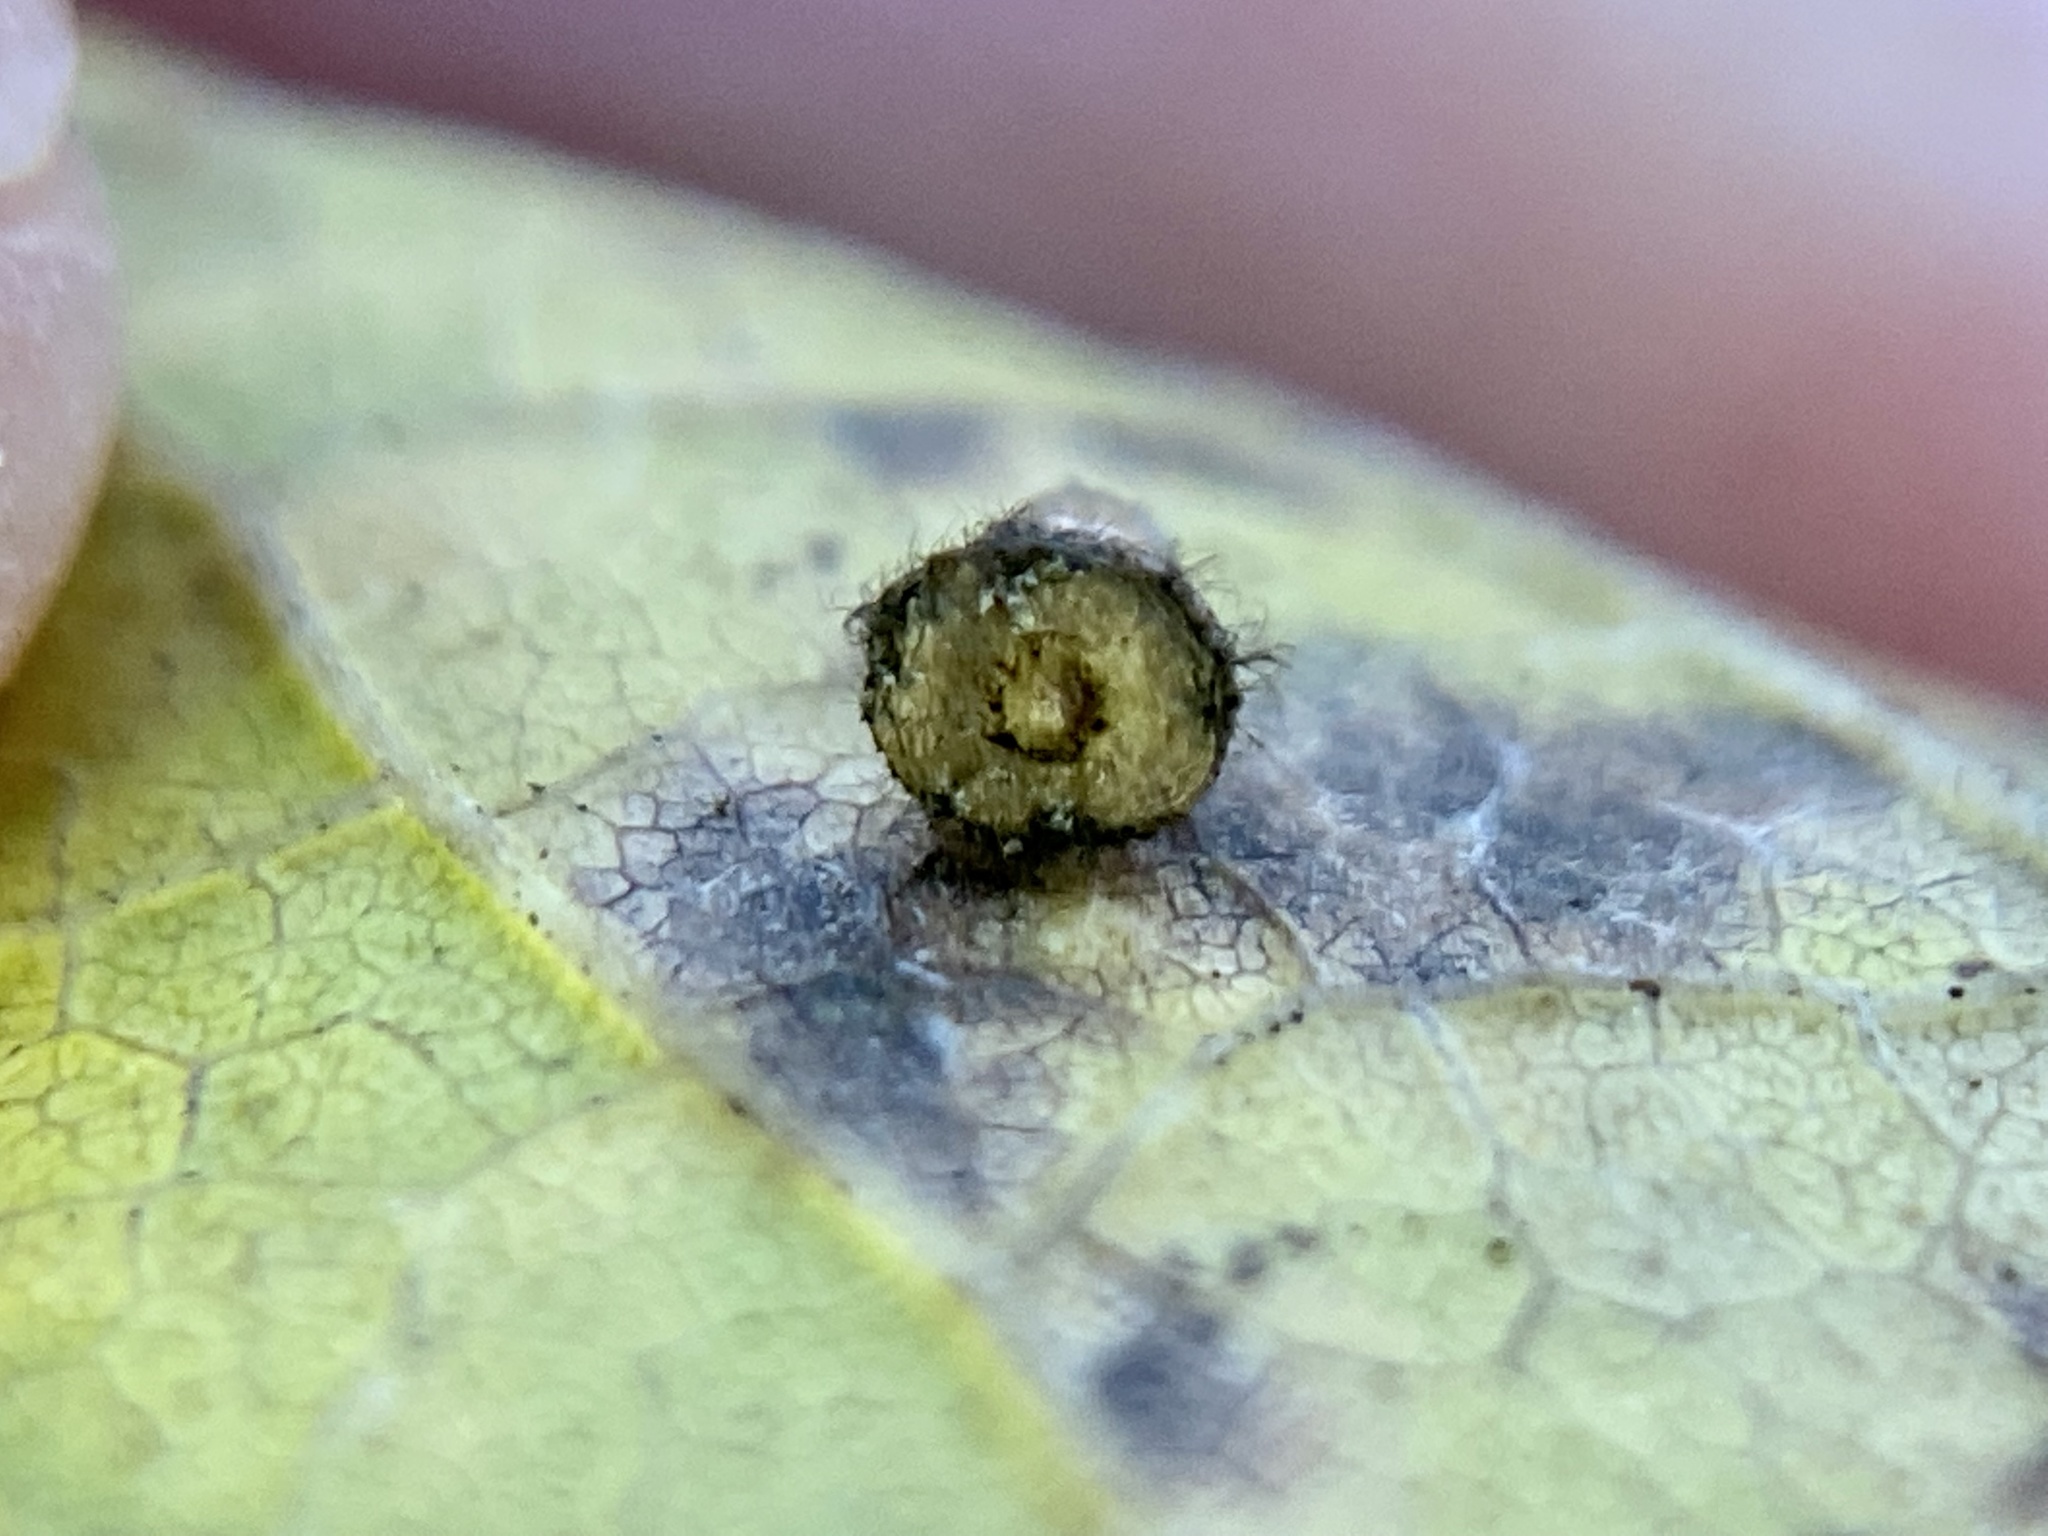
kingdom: Animalia
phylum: Arthropoda
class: Insecta
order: Diptera
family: Cecidomyiidae
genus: Celticecis
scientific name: Celticecis aciculata
